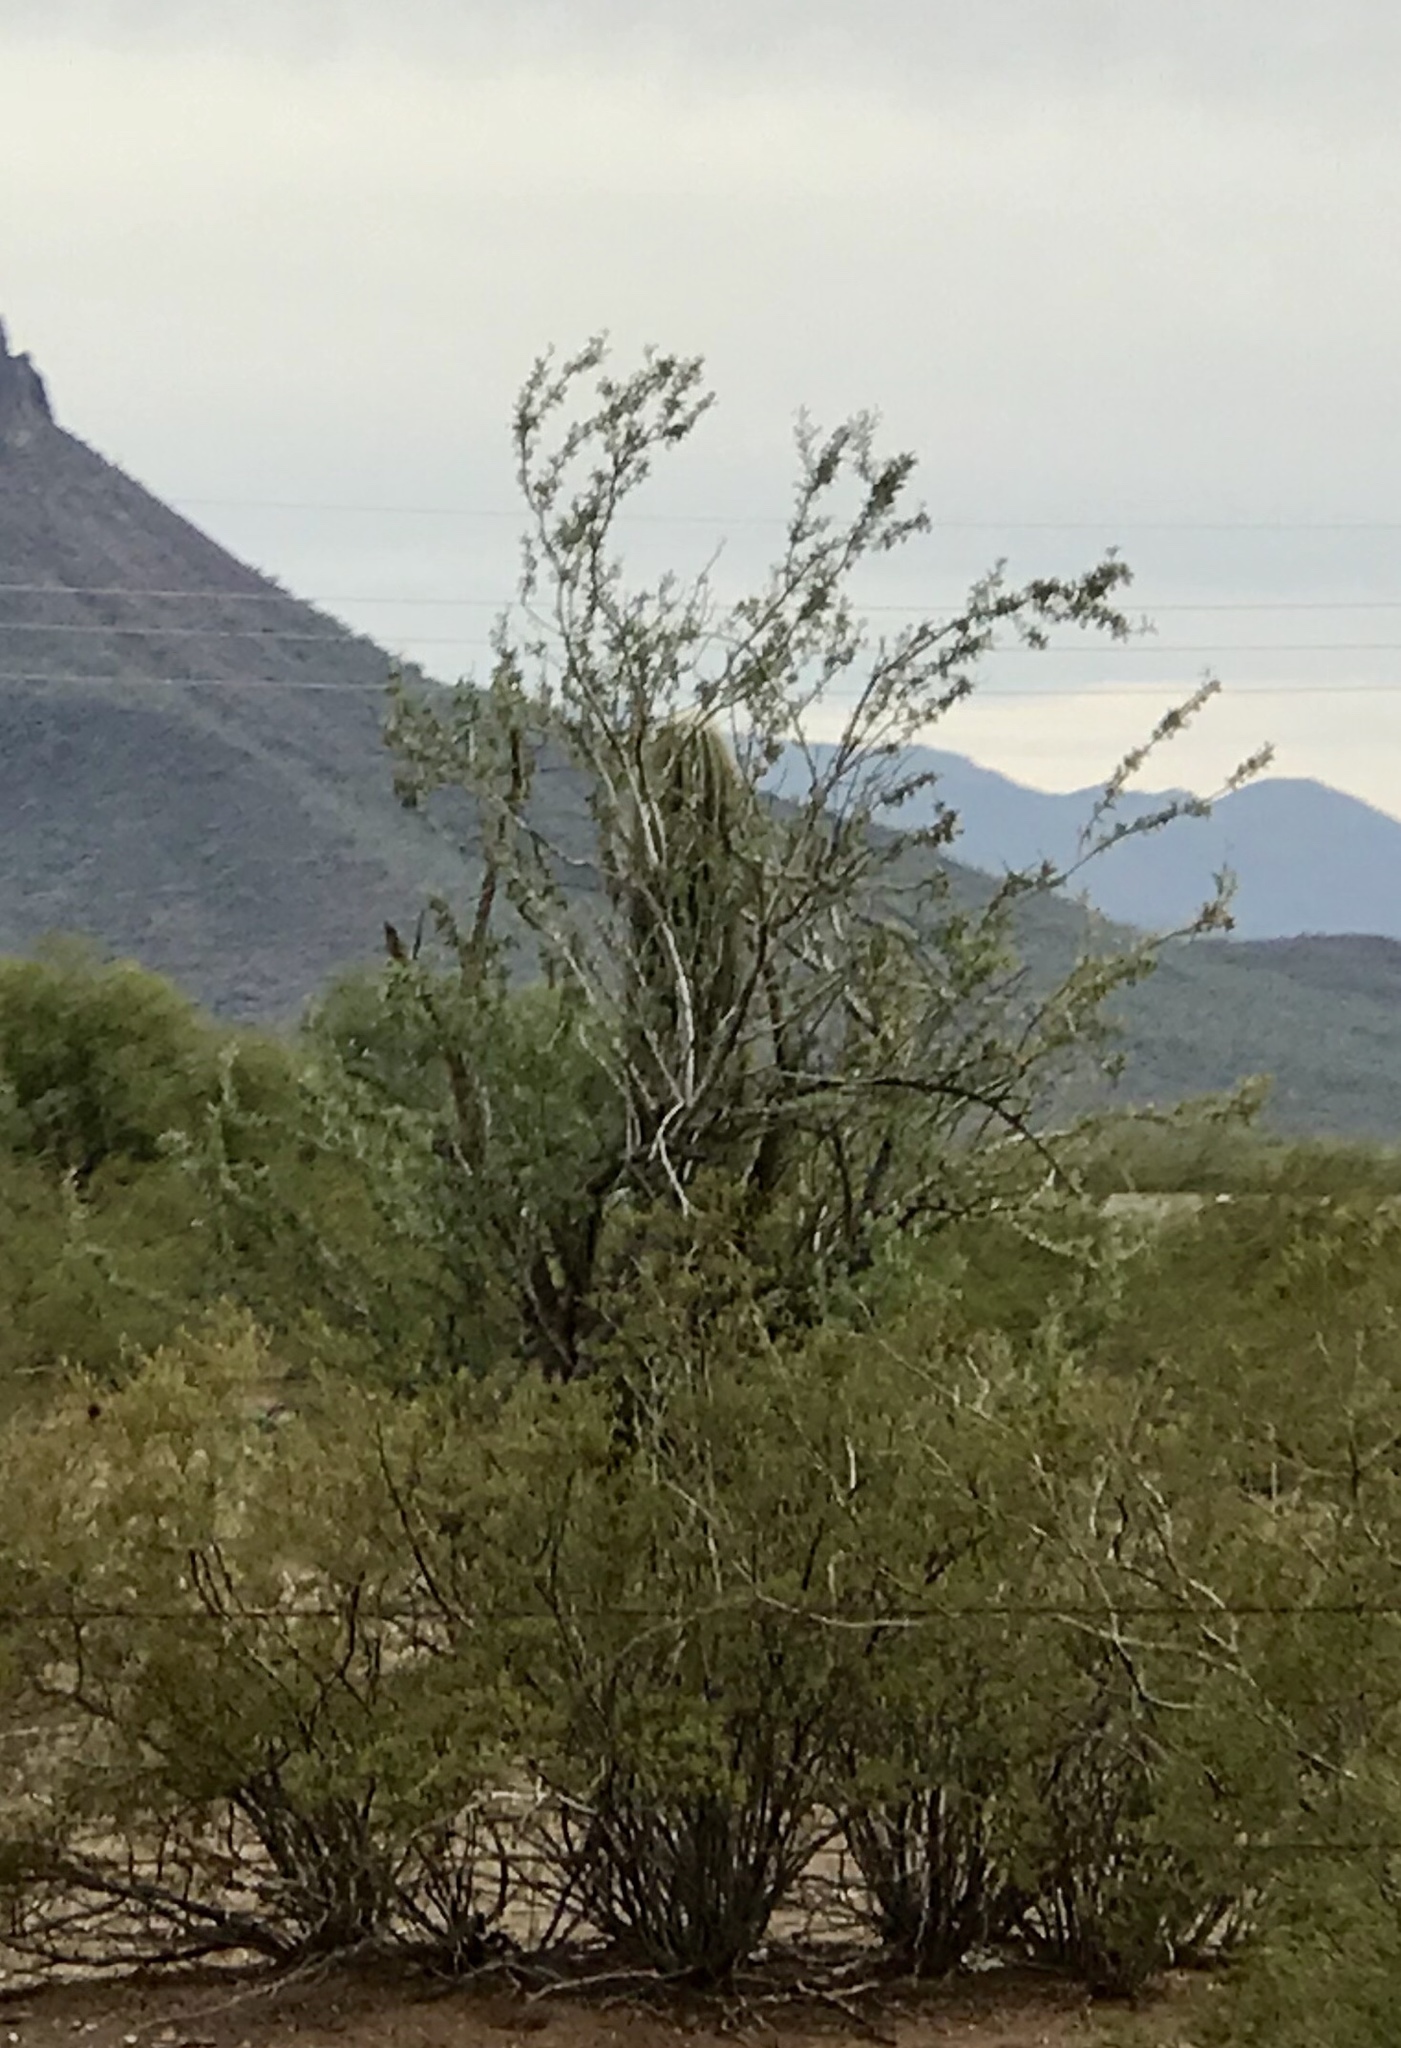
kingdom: Plantae
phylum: Tracheophyta
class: Magnoliopsida
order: Fabales
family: Fabaceae
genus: Olneya
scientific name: Olneya tesota
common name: Desert ironwood
